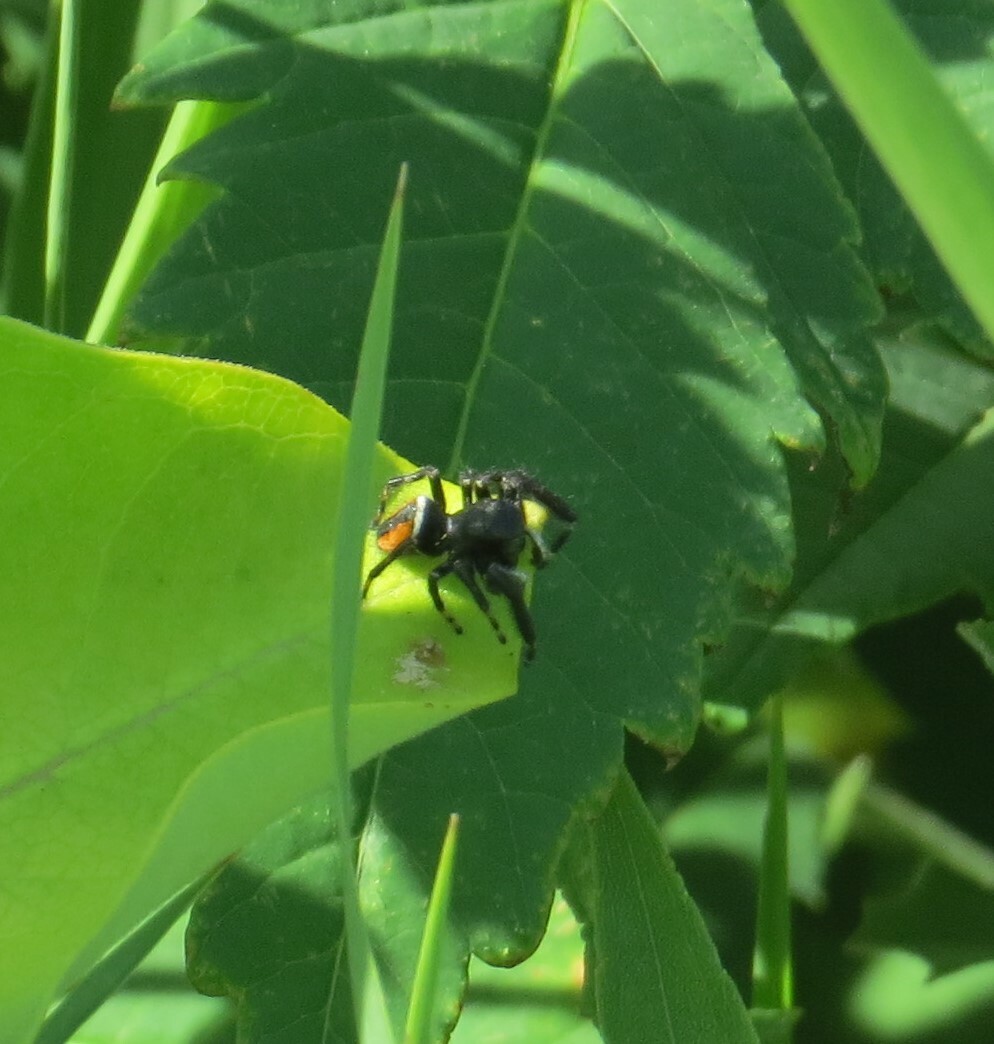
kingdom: Animalia
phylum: Arthropoda
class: Arachnida
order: Araneae
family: Salticidae
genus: Phidippus
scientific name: Phidippus clarus
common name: Brilliant jumping spider
